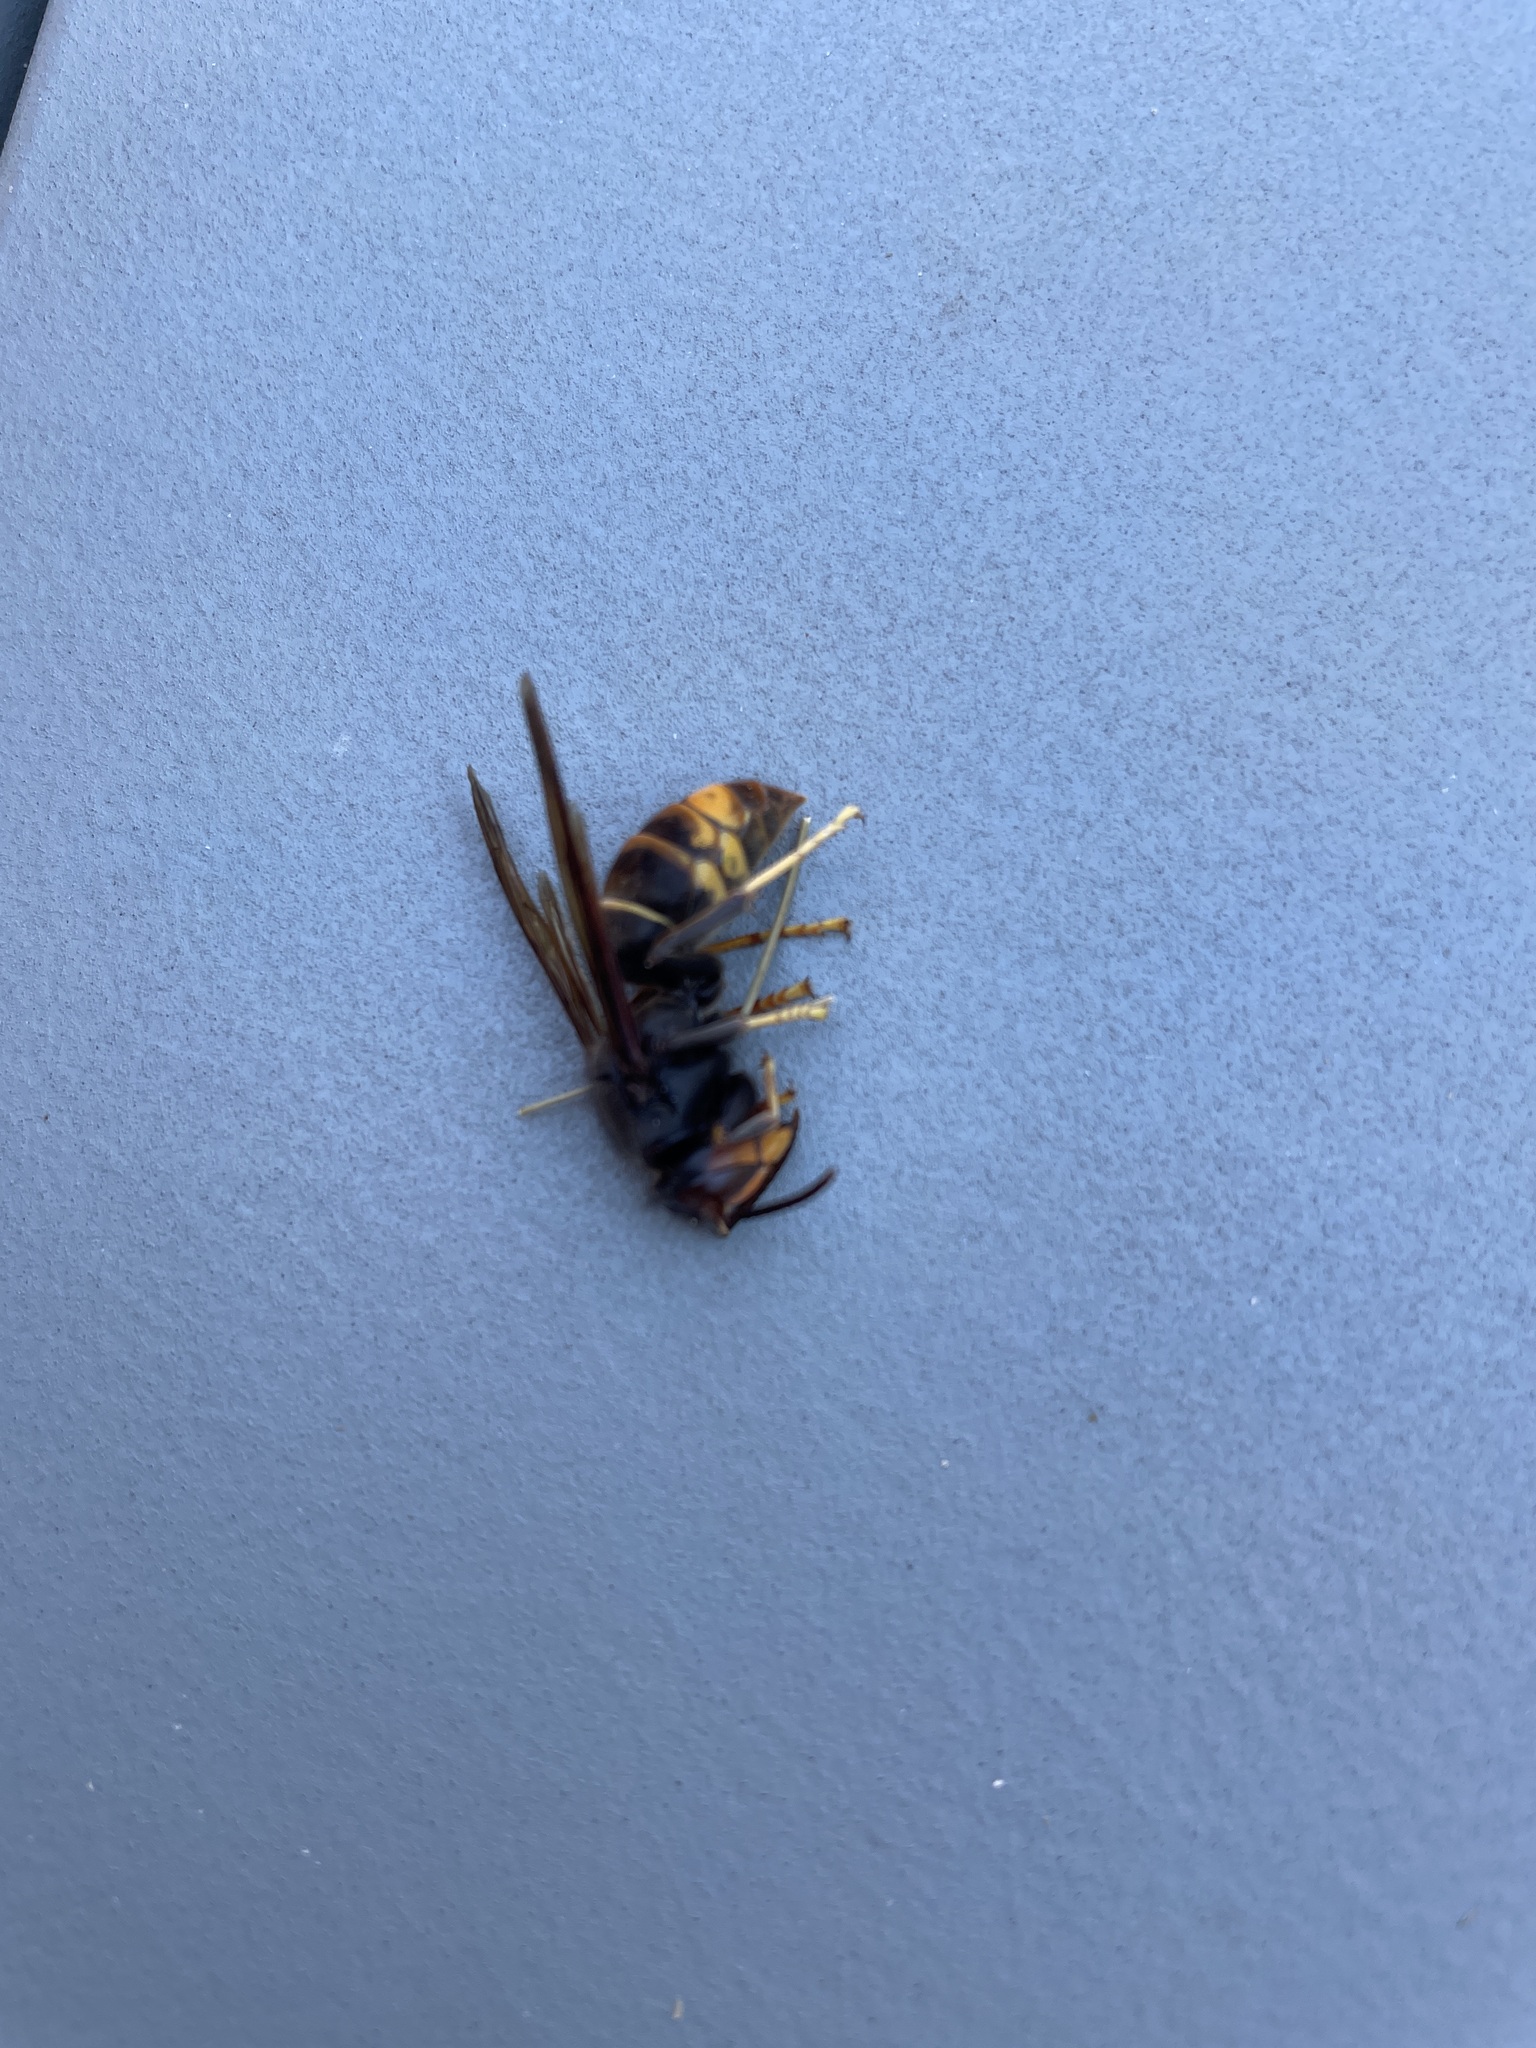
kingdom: Animalia
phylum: Arthropoda
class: Insecta
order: Hymenoptera
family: Vespidae
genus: Vespa
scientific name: Vespa velutina
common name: Asian hornet
